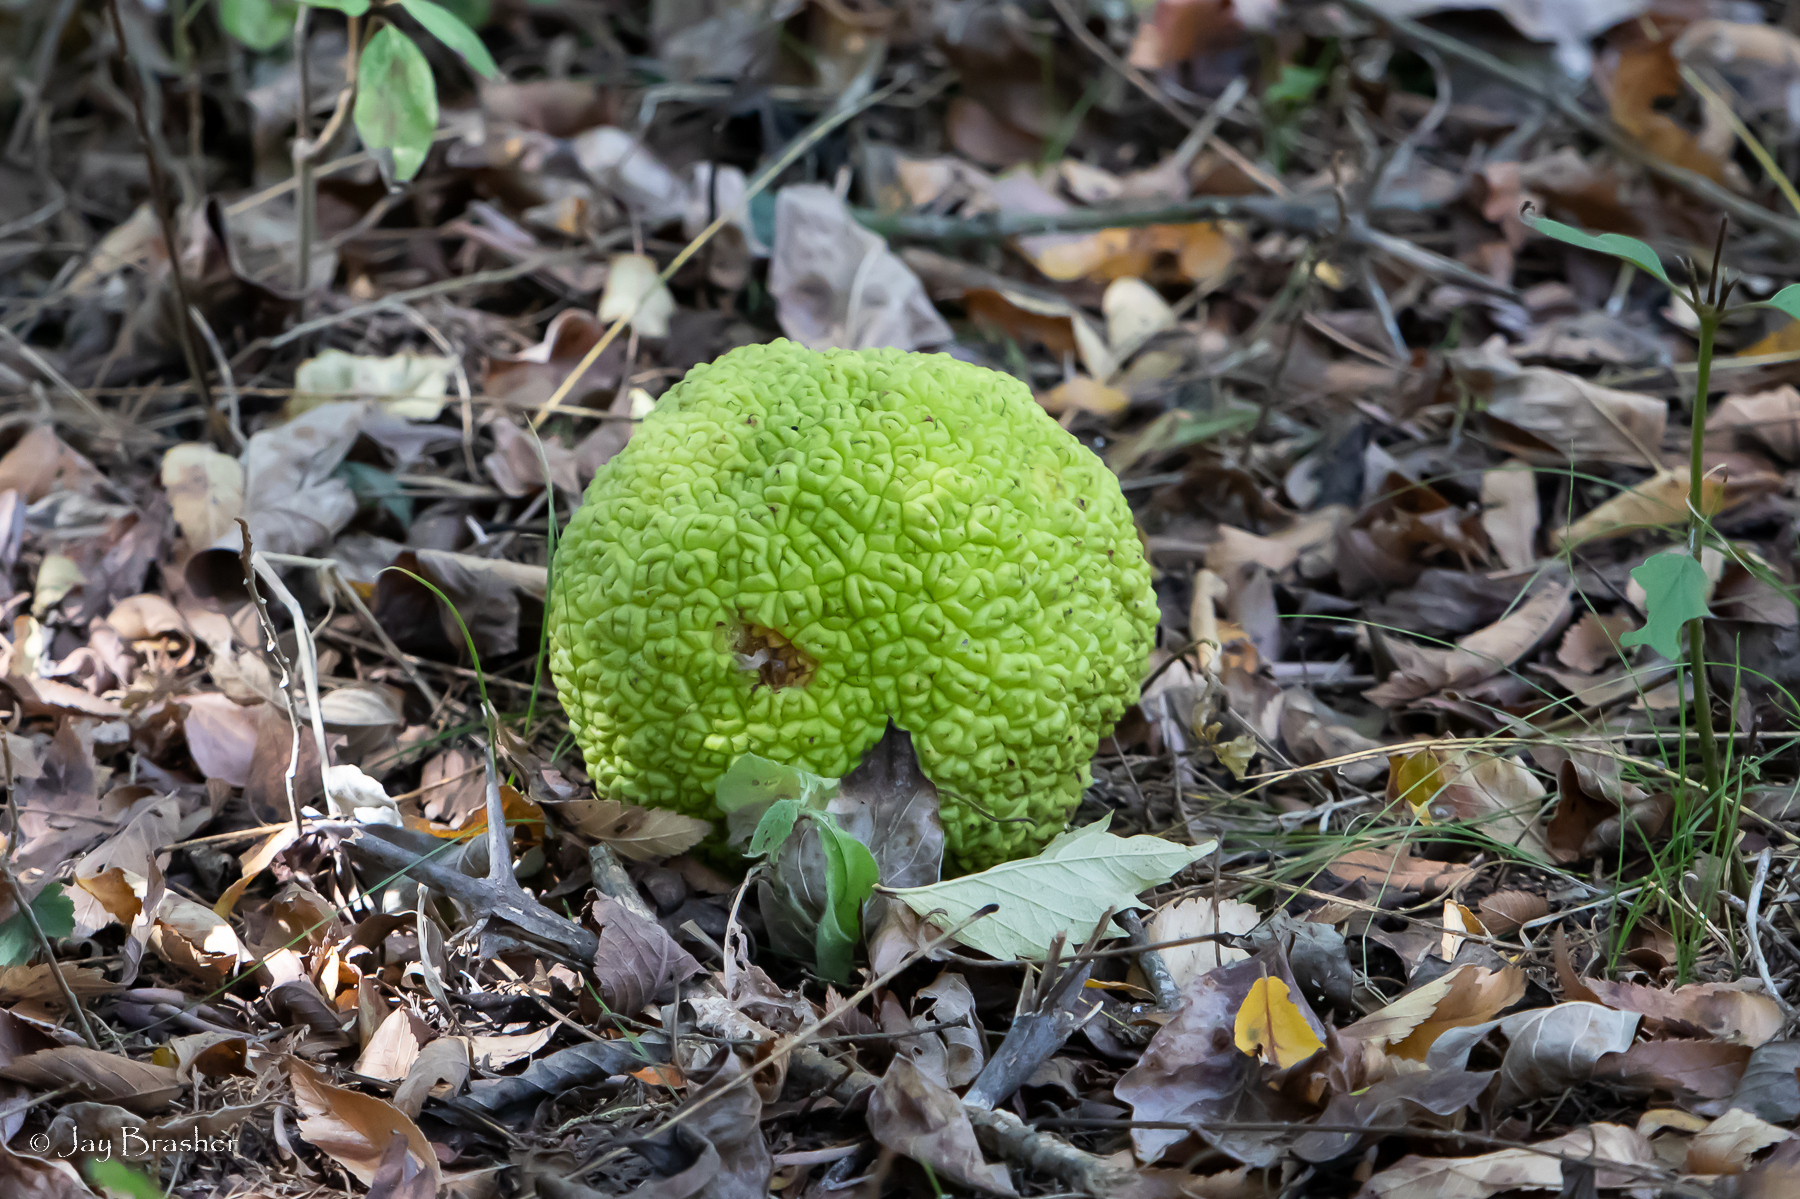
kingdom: Plantae
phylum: Tracheophyta
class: Magnoliopsida
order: Rosales
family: Moraceae
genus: Maclura
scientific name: Maclura pomifera
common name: Osage-orange
